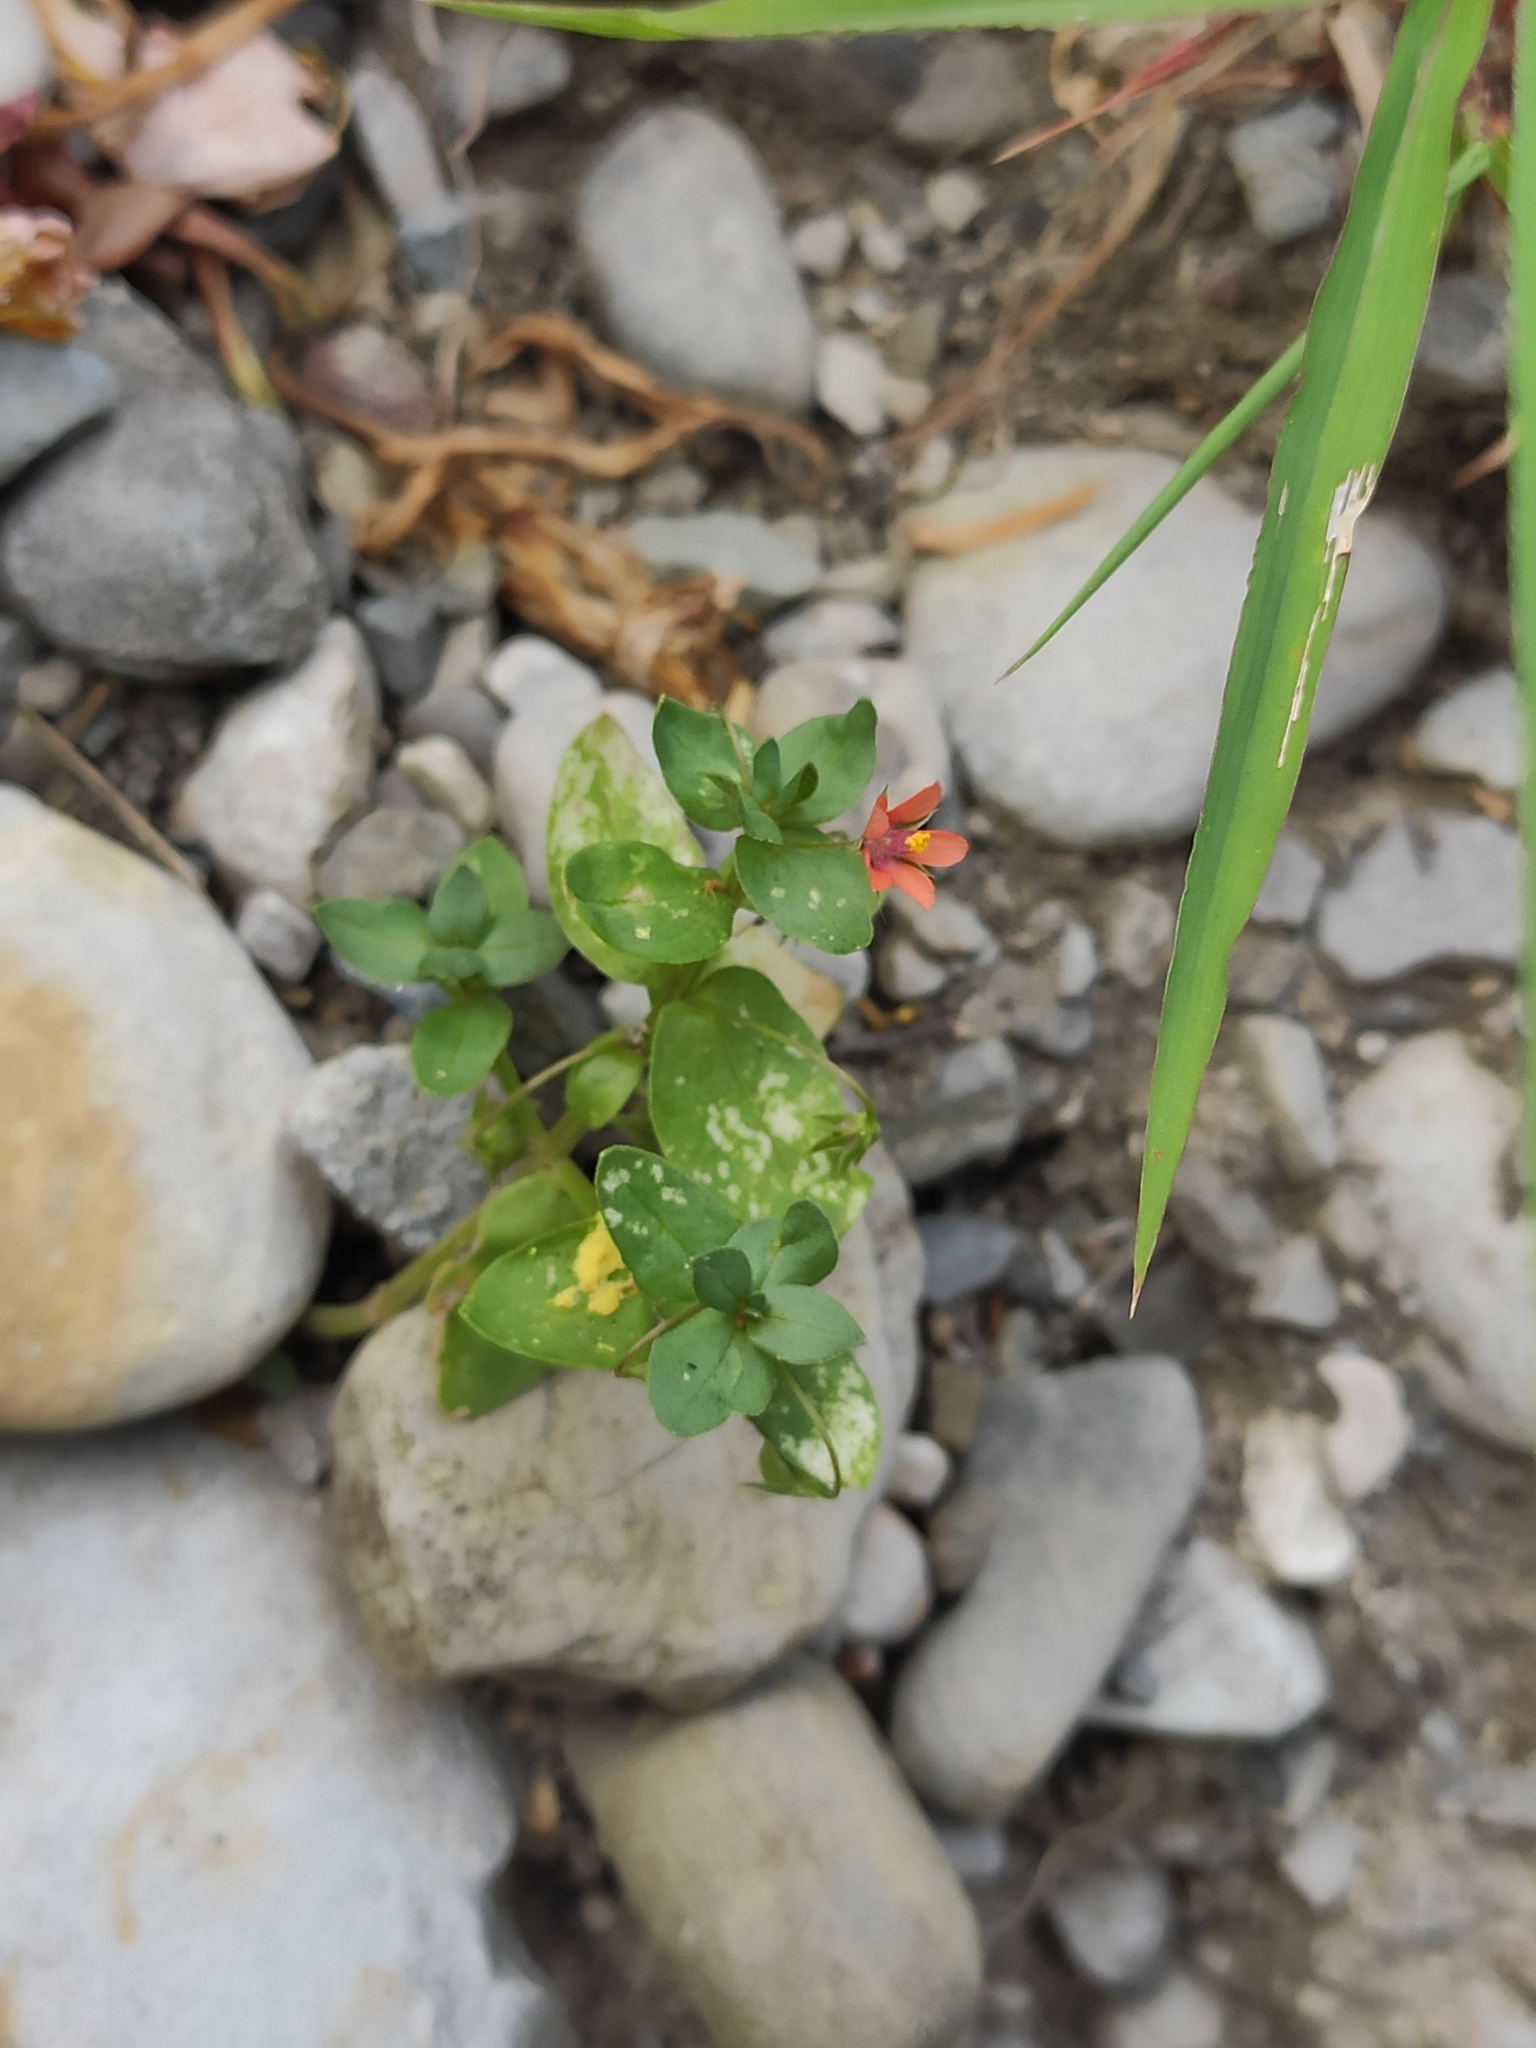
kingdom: Plantae
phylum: Tracheophyta
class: Magnoliopsida
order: Ericales
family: Primulaceae
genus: Lysimachia
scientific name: Lysimachia arvensis
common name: Scarlet pimpernel
